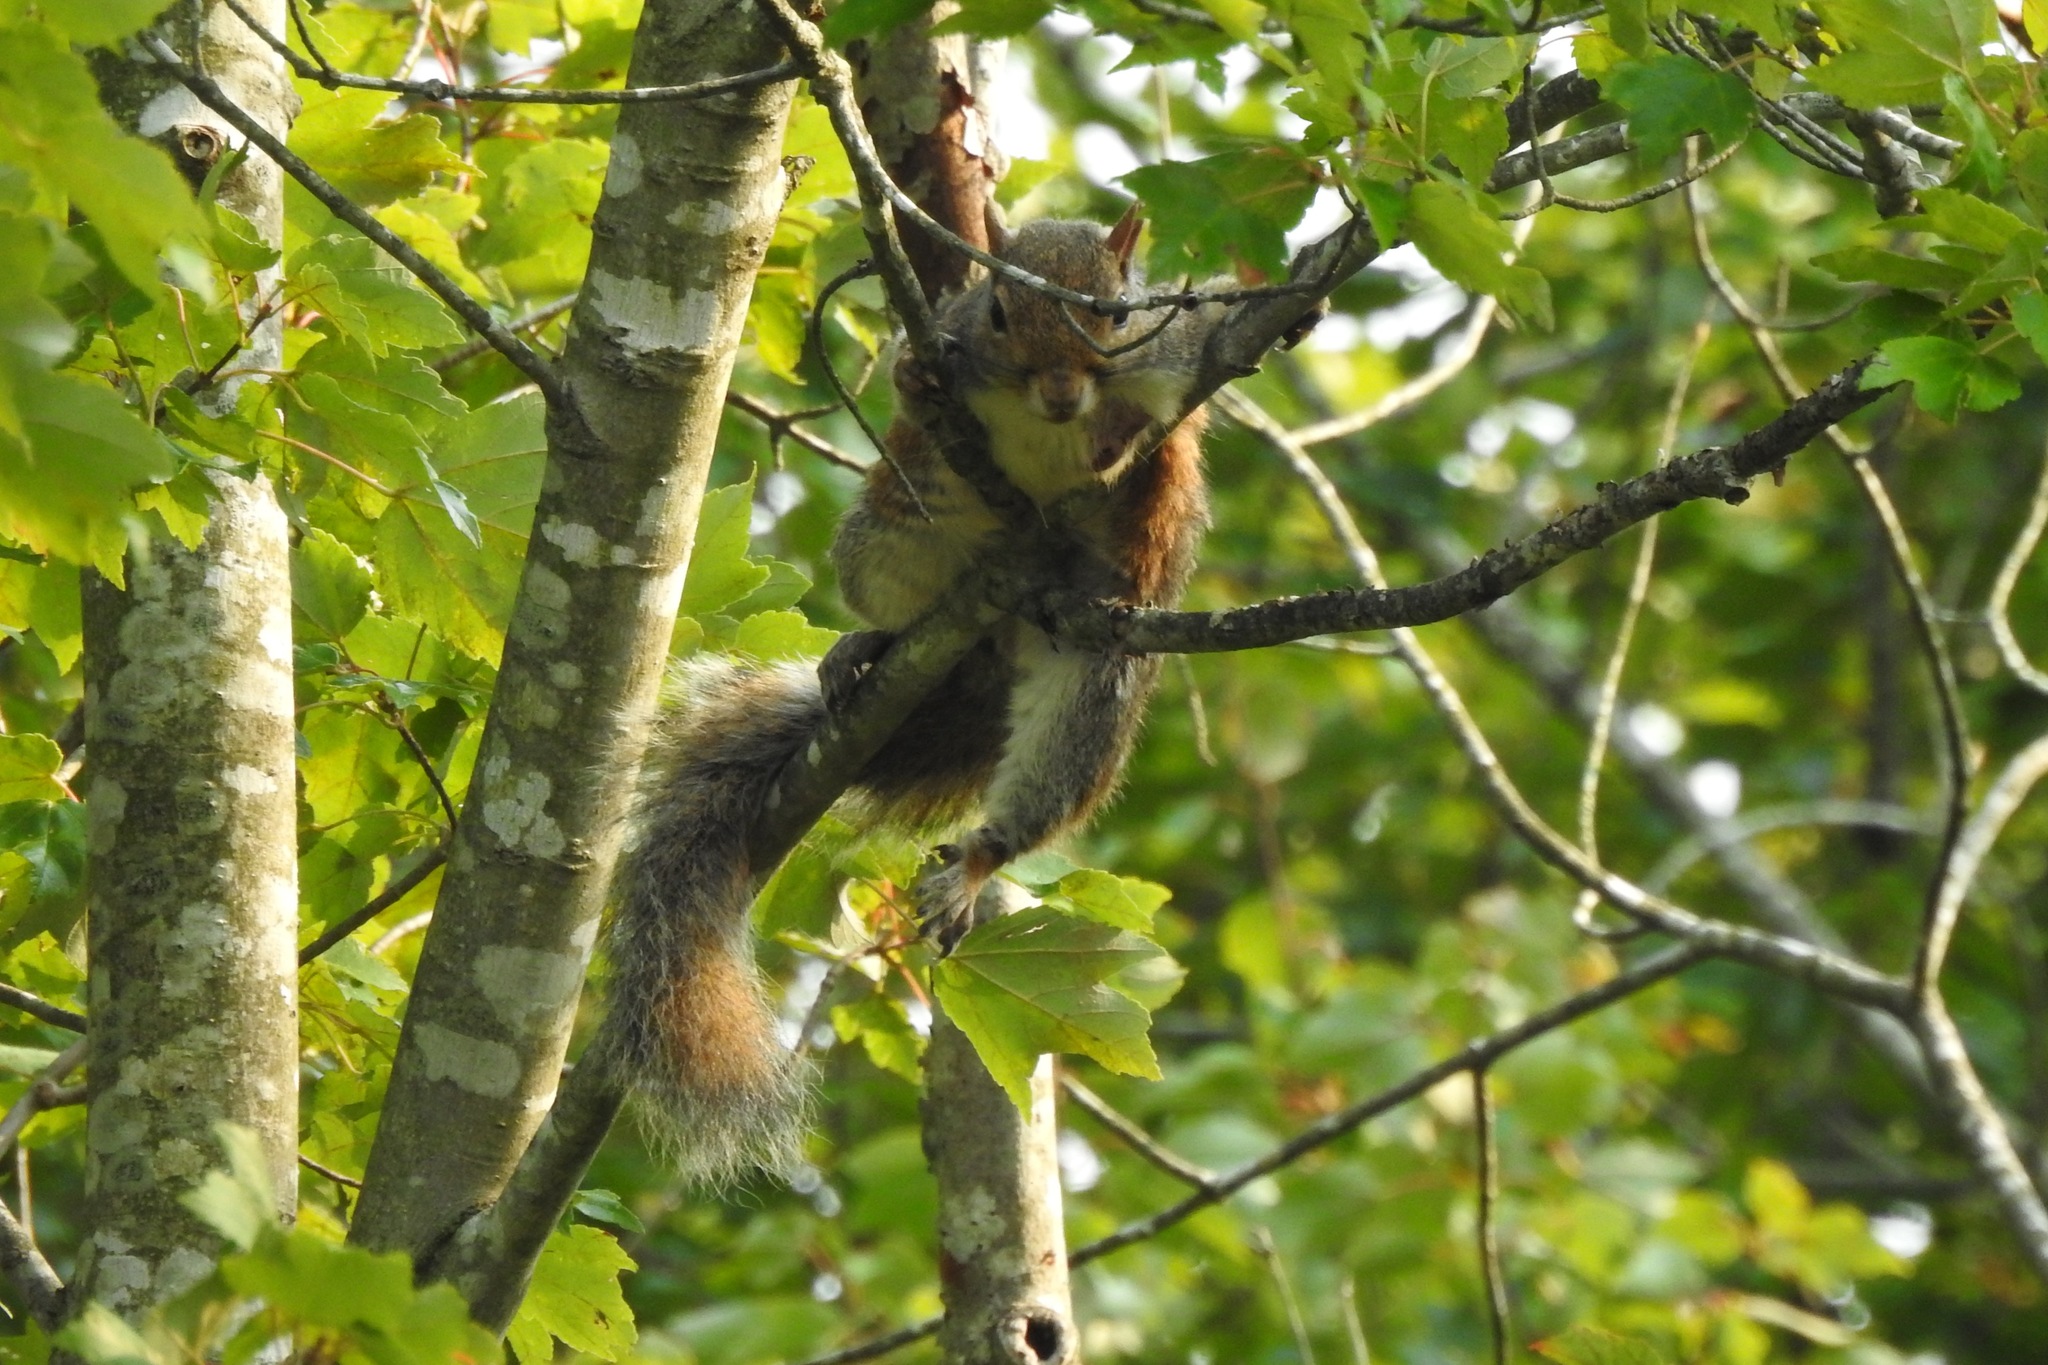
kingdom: Animalia
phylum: Chordata
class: Mammalia
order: Rodentia
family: Sciuridae
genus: Sciurus
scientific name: Sciurus carolinensis
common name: Eastern gray squirrel
